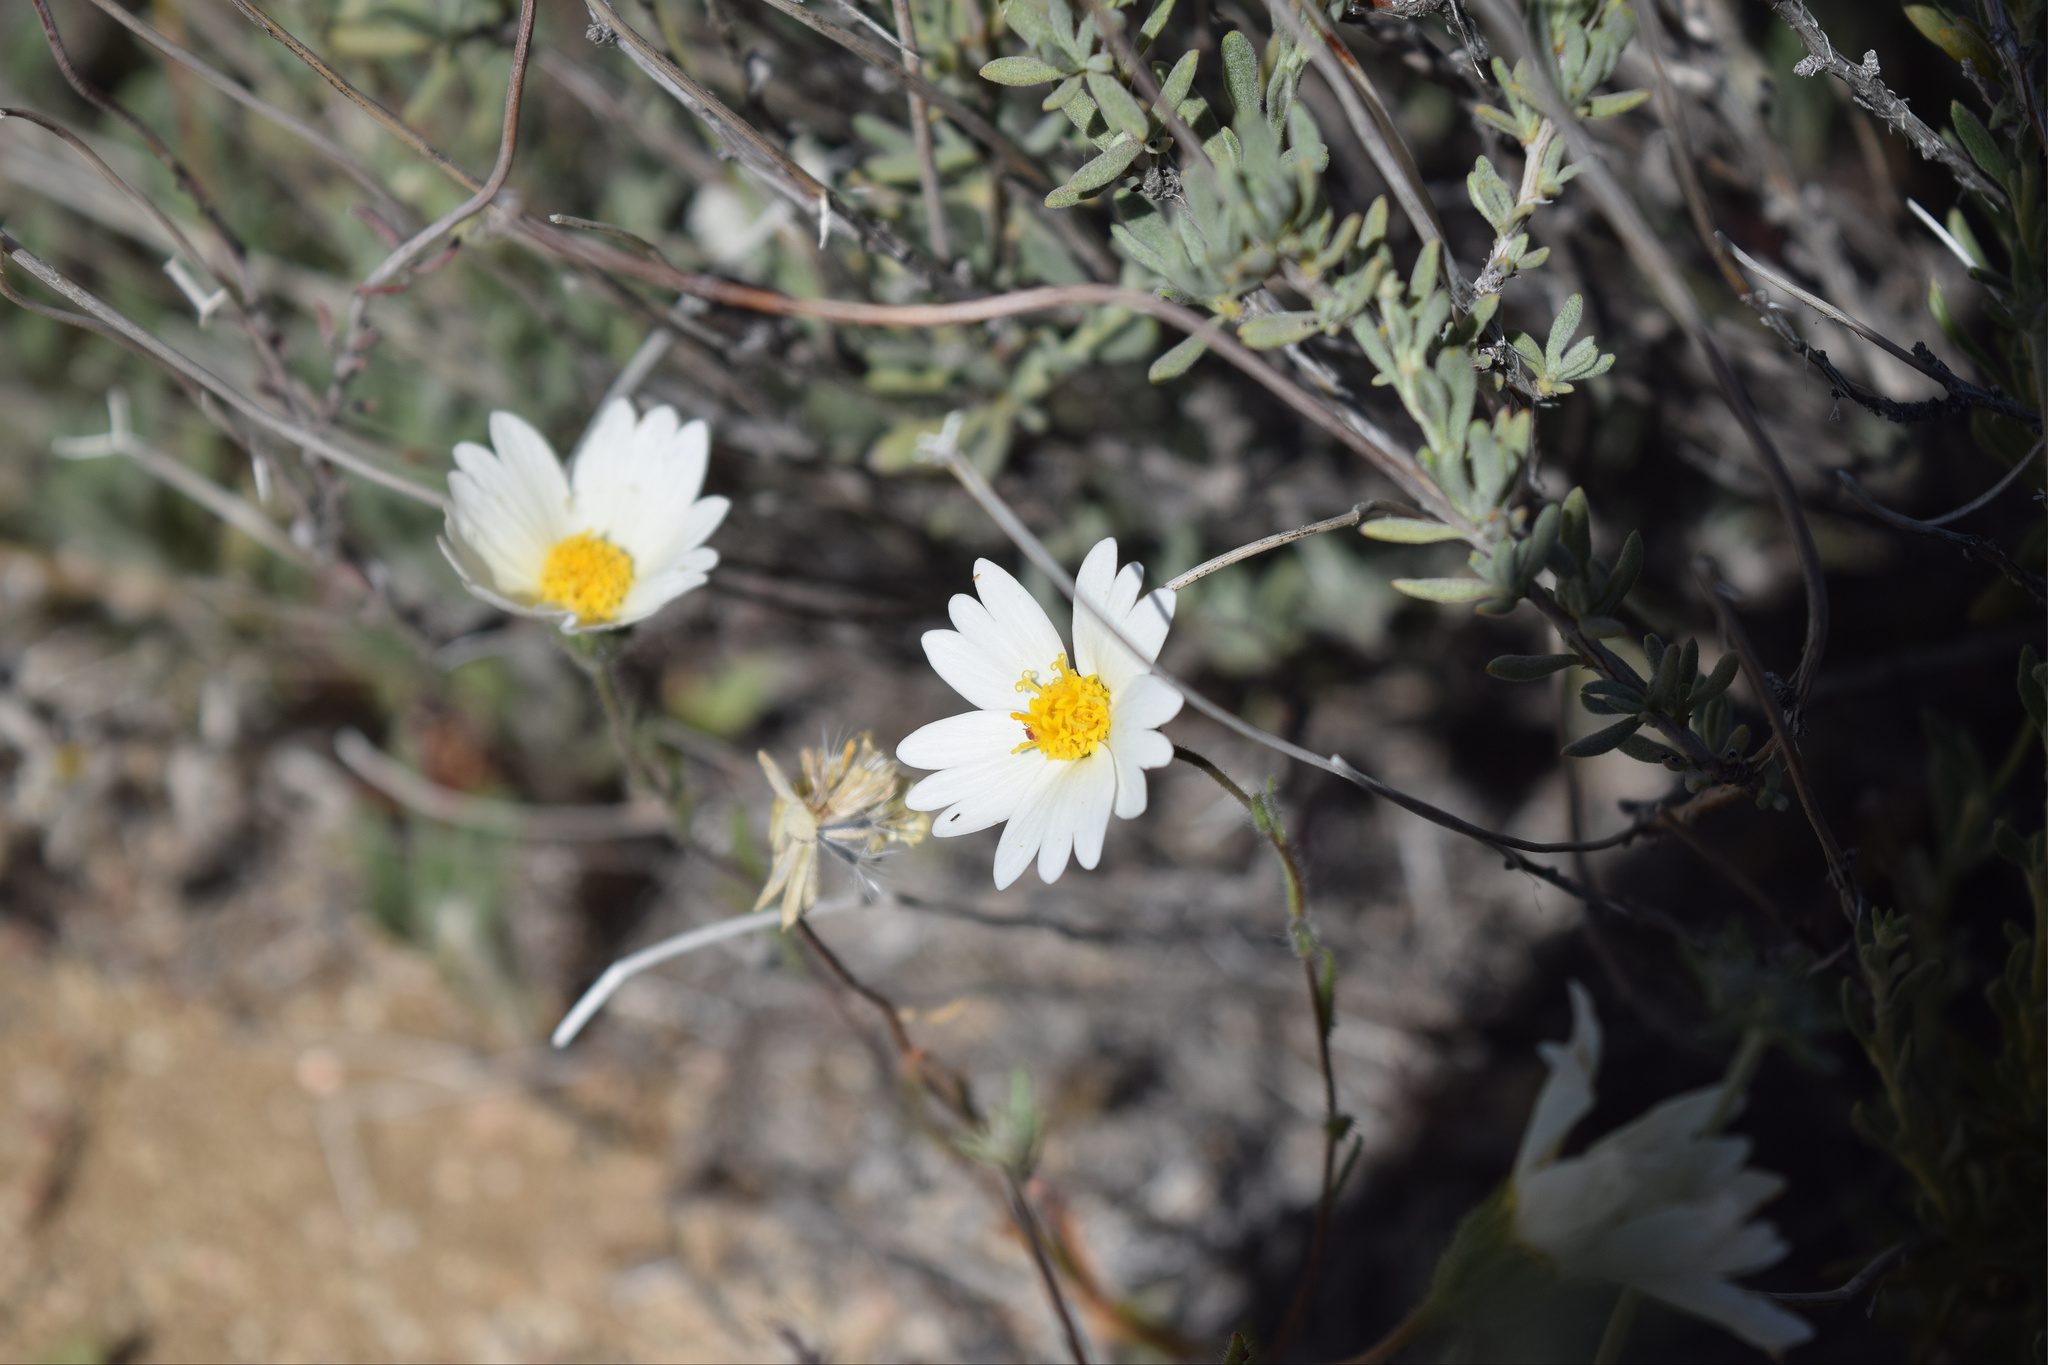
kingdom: Plantae
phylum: Tracheophyta
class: Magnoliopsida
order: Asterales
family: Asteraceae
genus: Layia
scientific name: Layia glandulosa
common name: White layia
